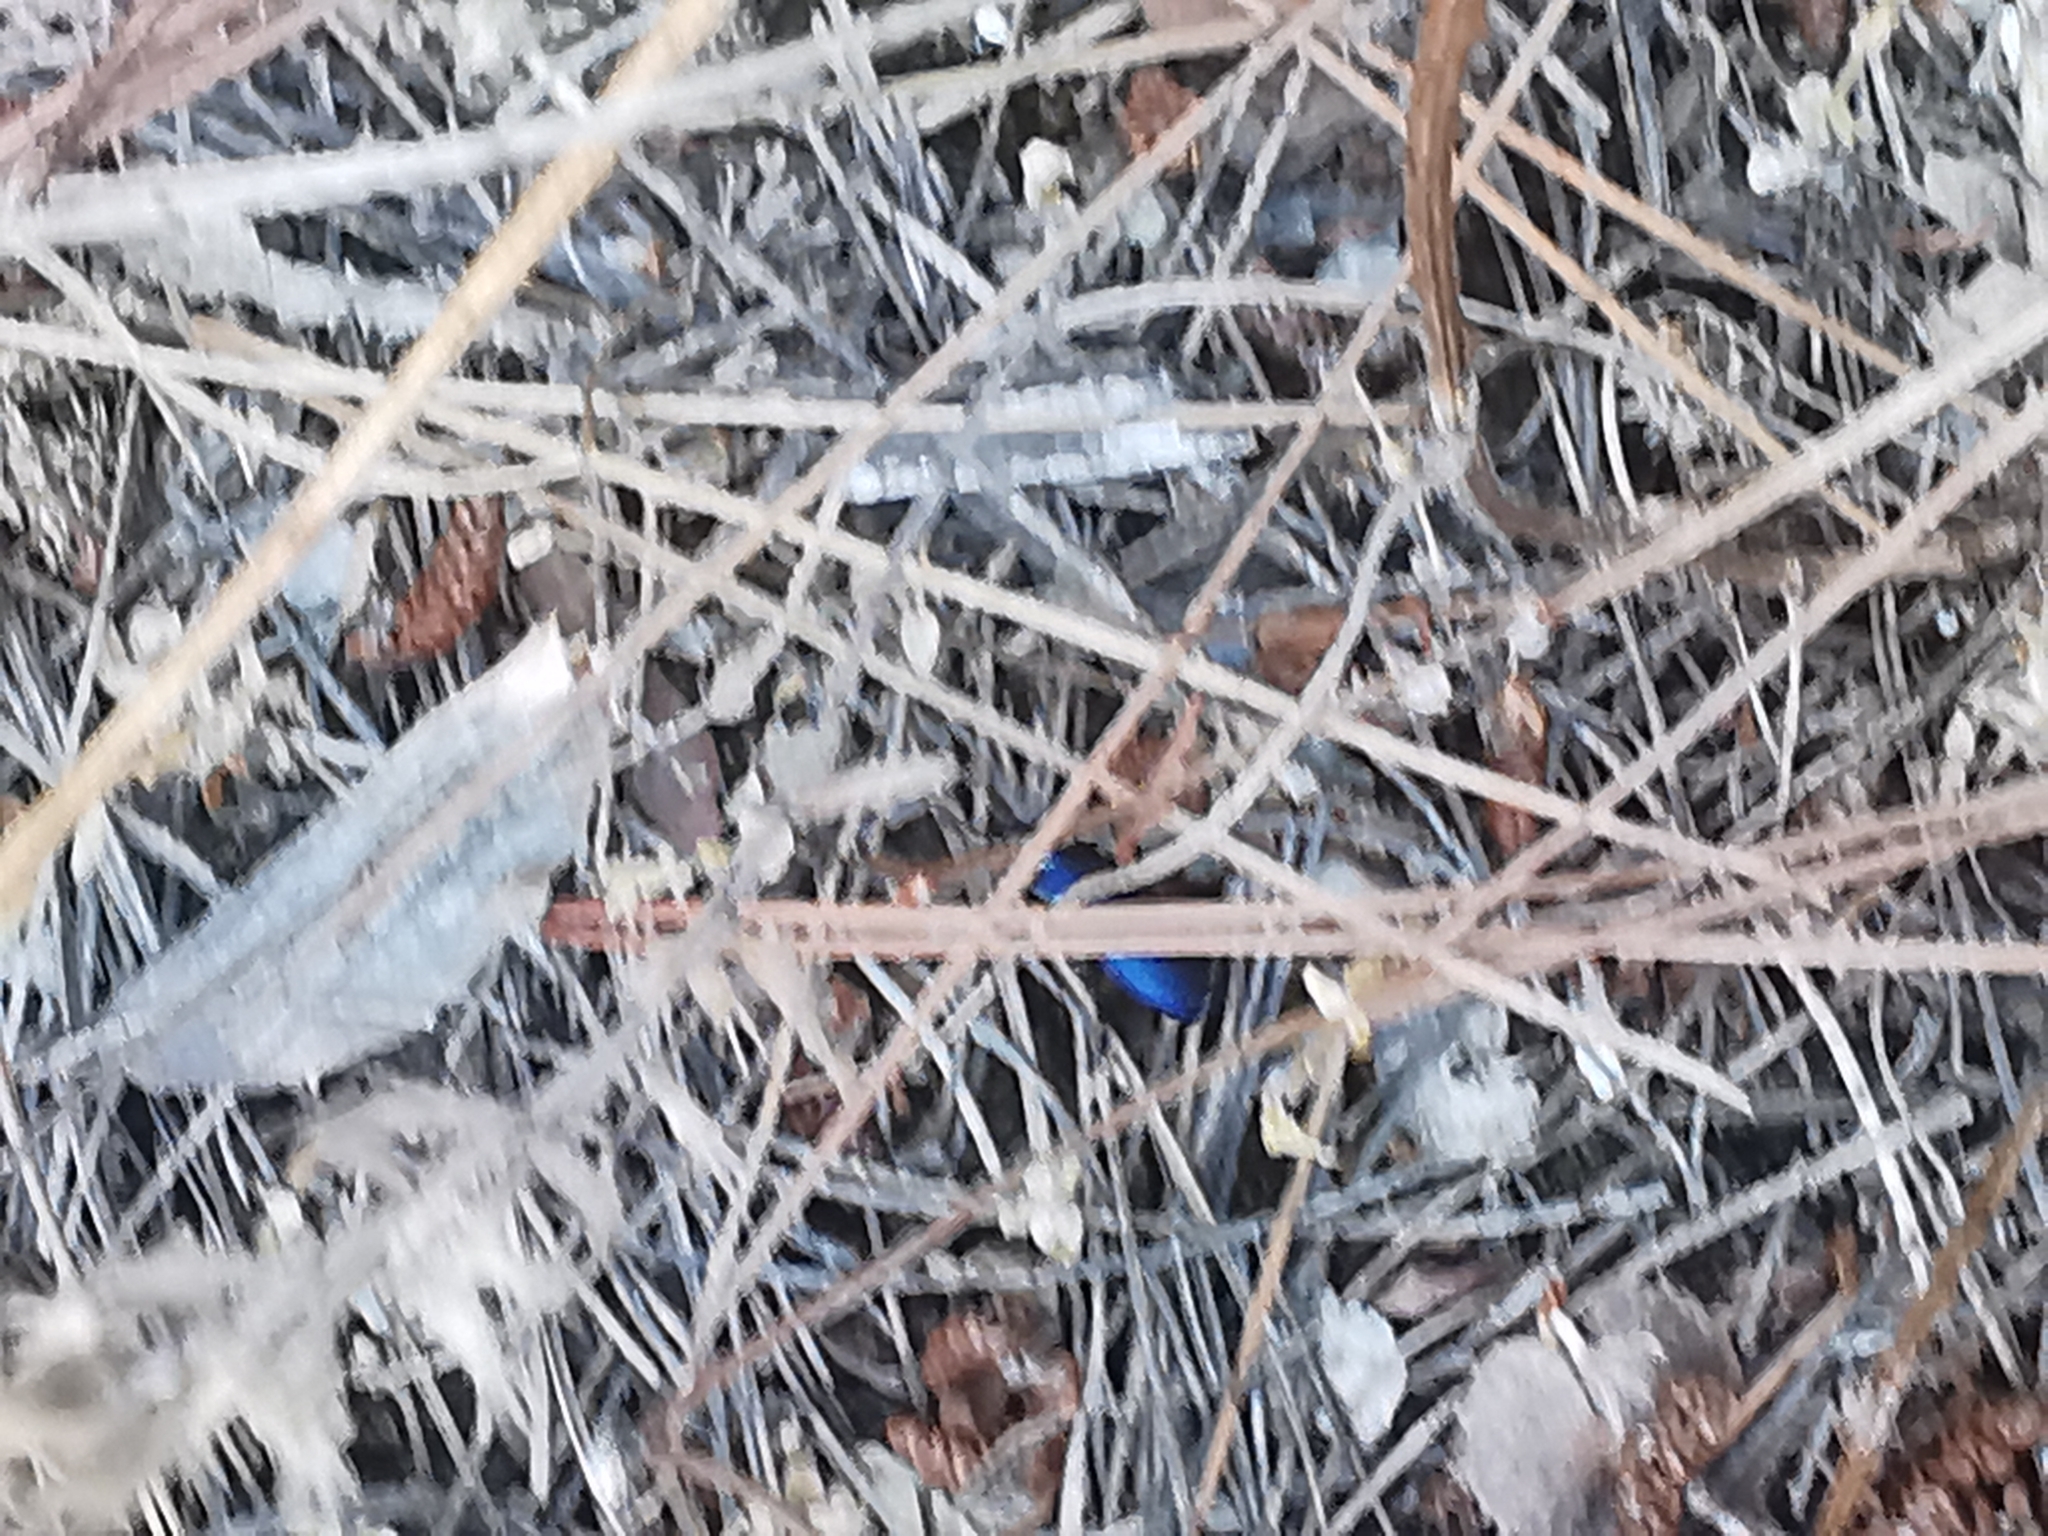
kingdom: Animalia
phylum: Arthropoda
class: Insecta
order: Coleoptera
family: Carabidae
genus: Chlaenius
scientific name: Chlaenius dejeanii
